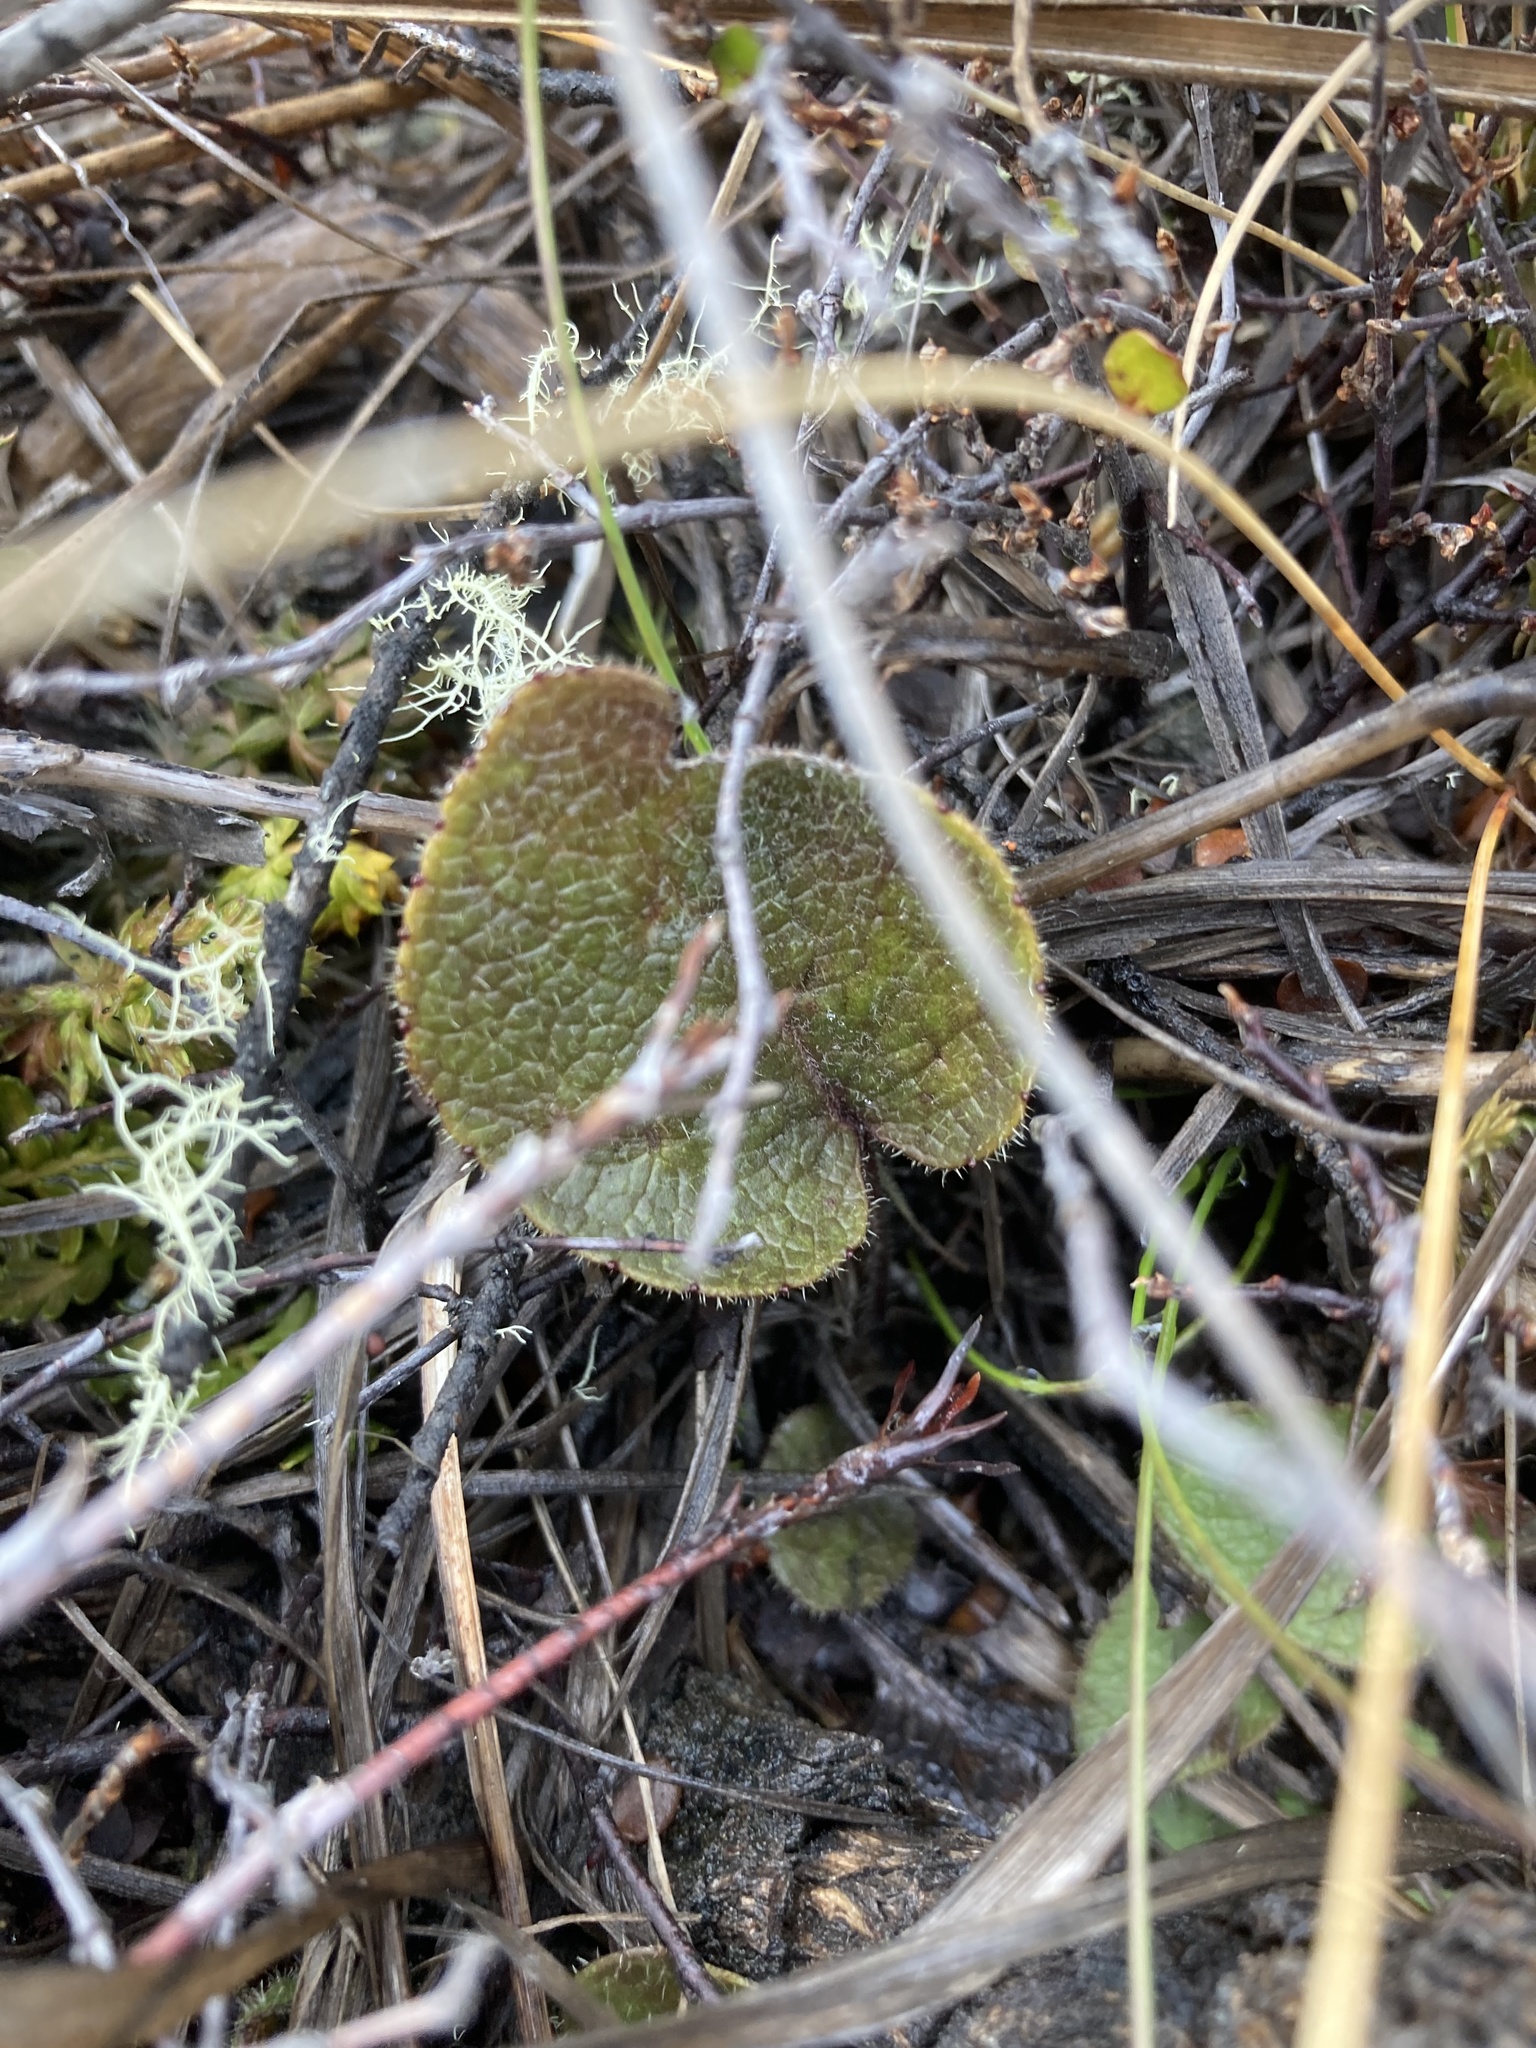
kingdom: Plantae
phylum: Tracheophyta
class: Magnoliopsida
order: Asterales
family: Asteraceae
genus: Brachyglottis
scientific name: Brachyglottis bellidioides
